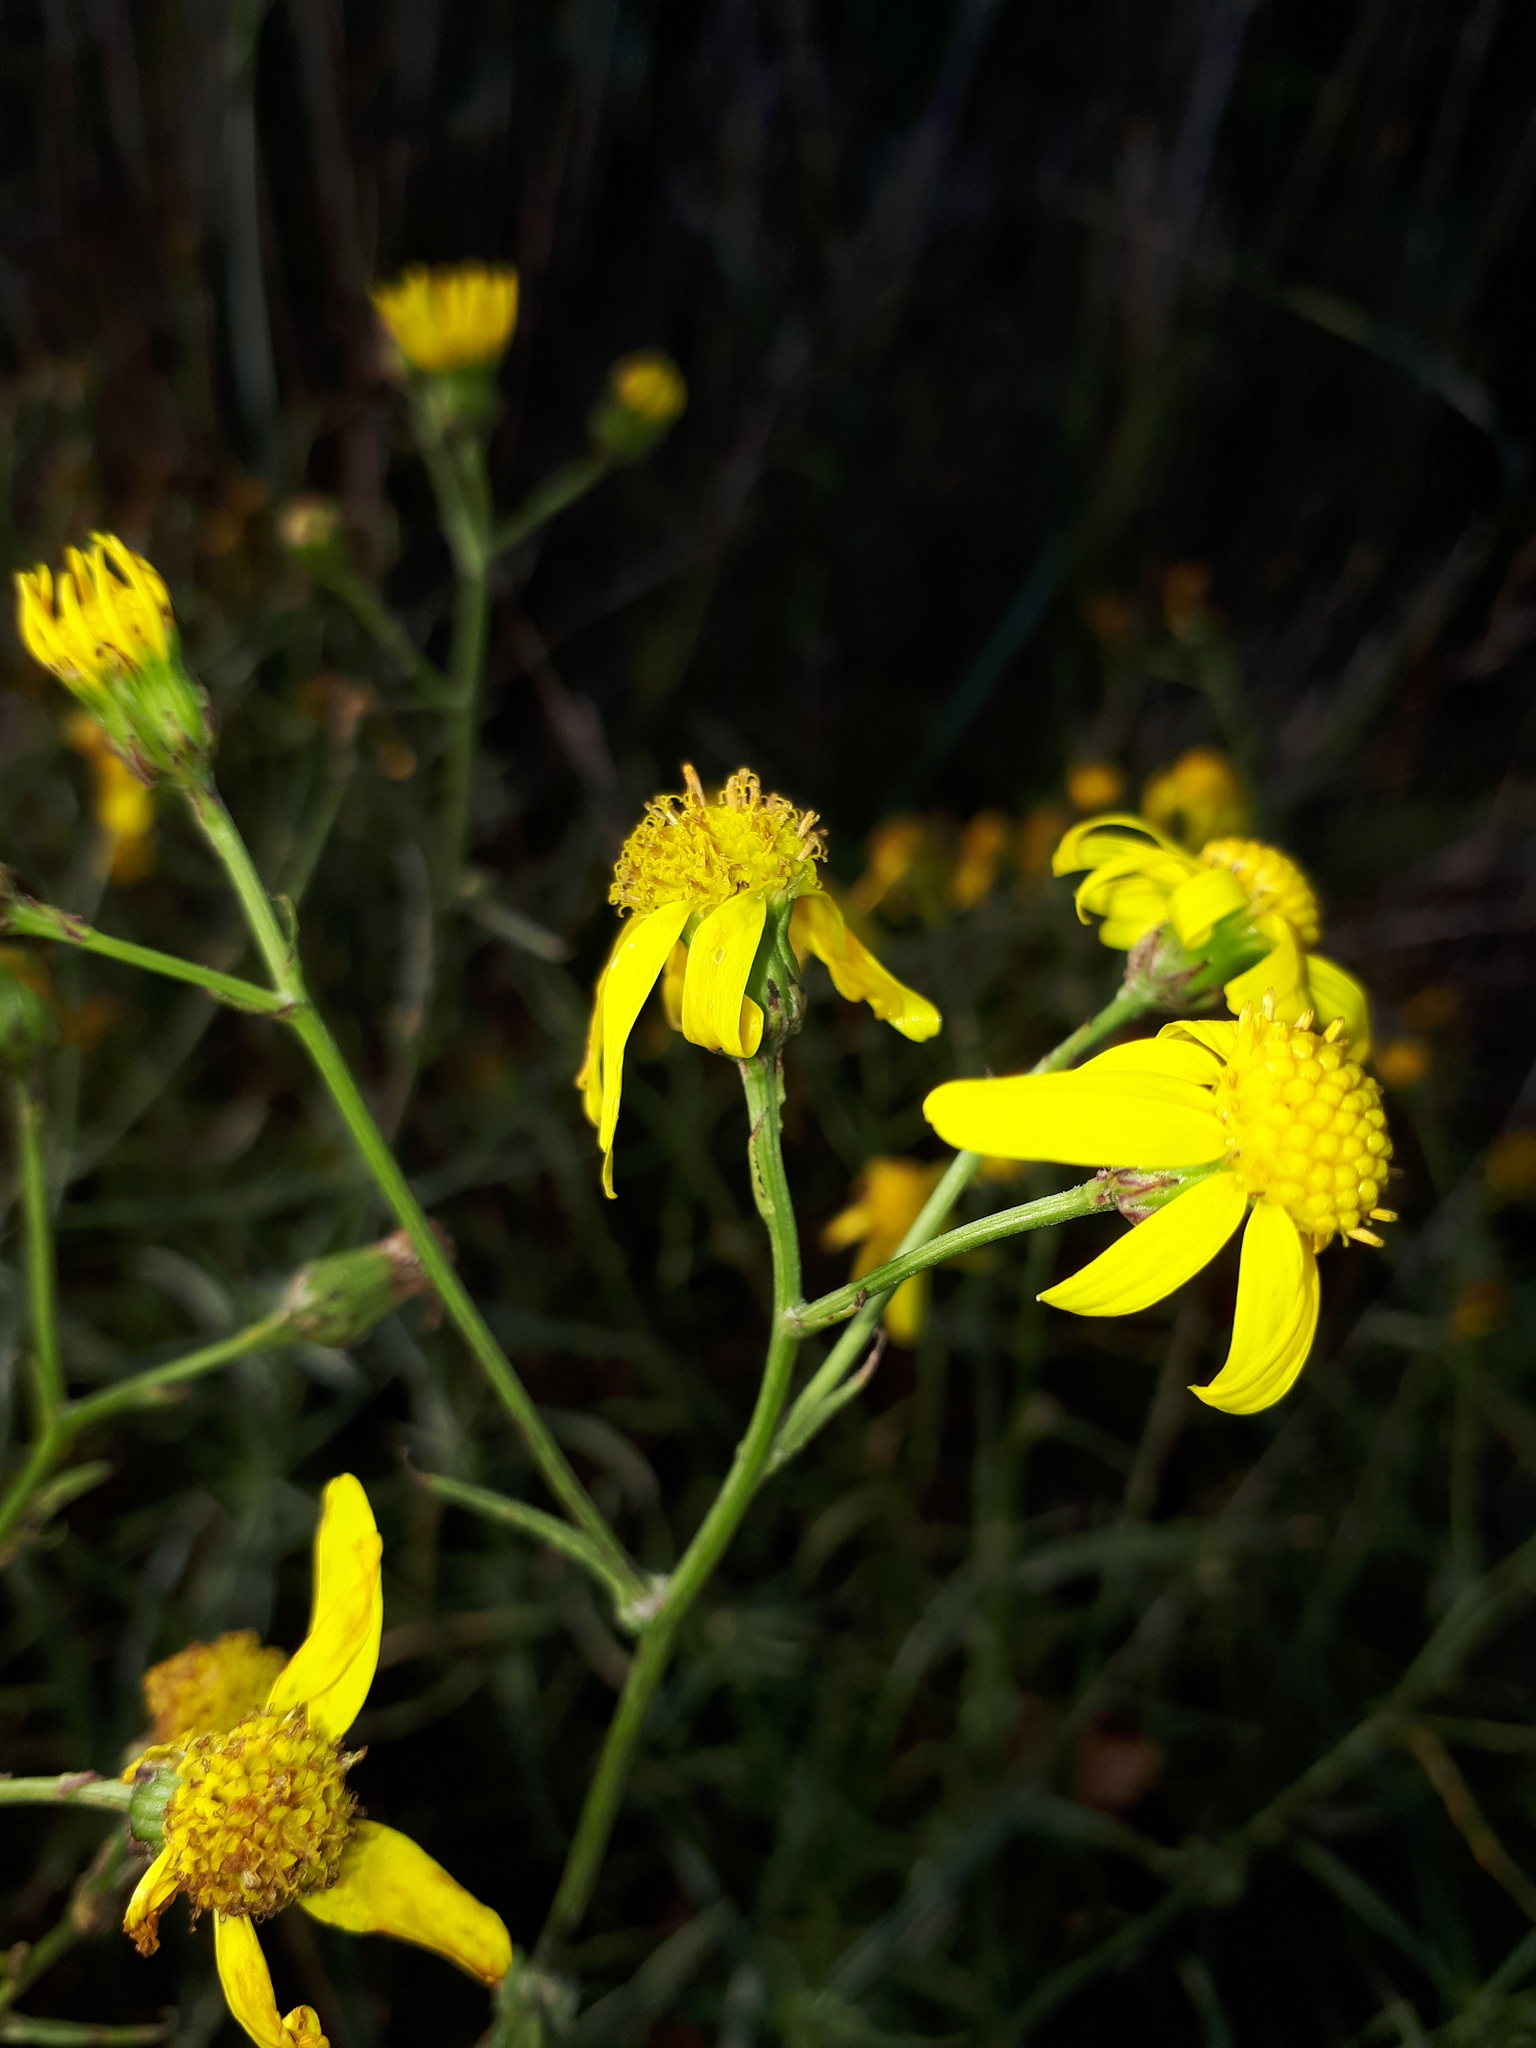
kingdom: Plantae
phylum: Tracheophyta
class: Magnoliopsida
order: Asterales
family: Asteraceae
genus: Senecio
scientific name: Senecio inaequidens
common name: Narrow-leaved ragwort
